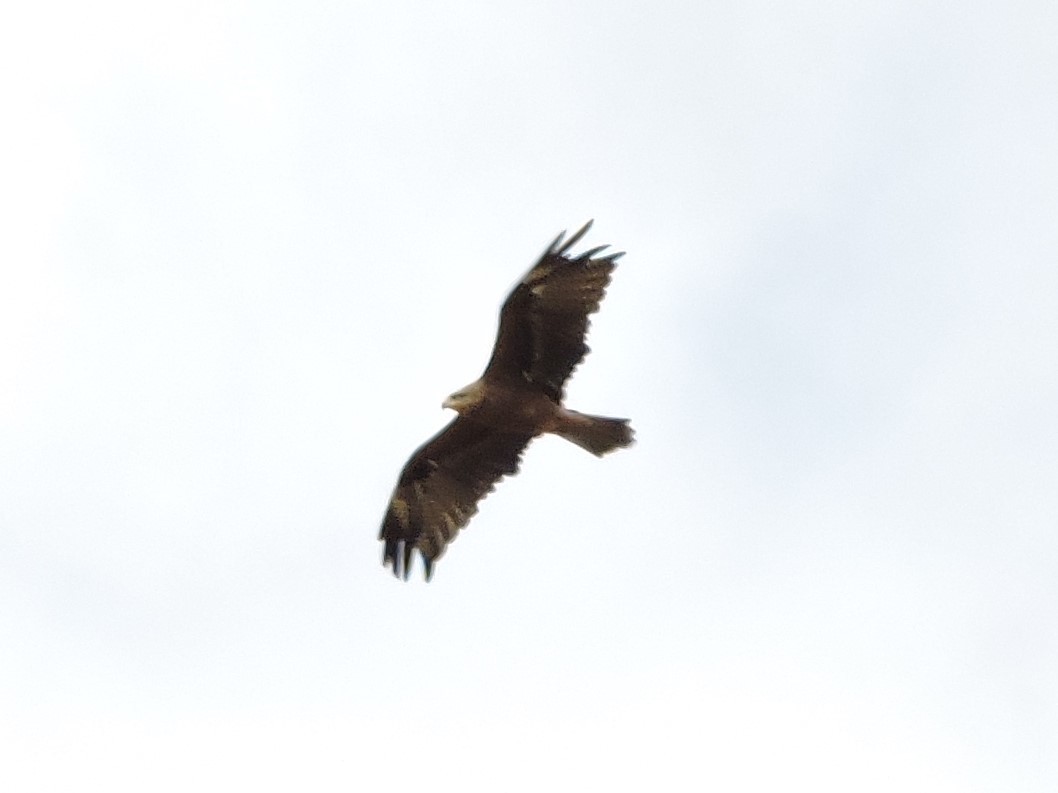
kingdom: Animalia
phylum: Chordata
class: Aves
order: Accipitriformes
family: Accipitridae
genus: Milvus
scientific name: Milvus migrans
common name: Black kite
